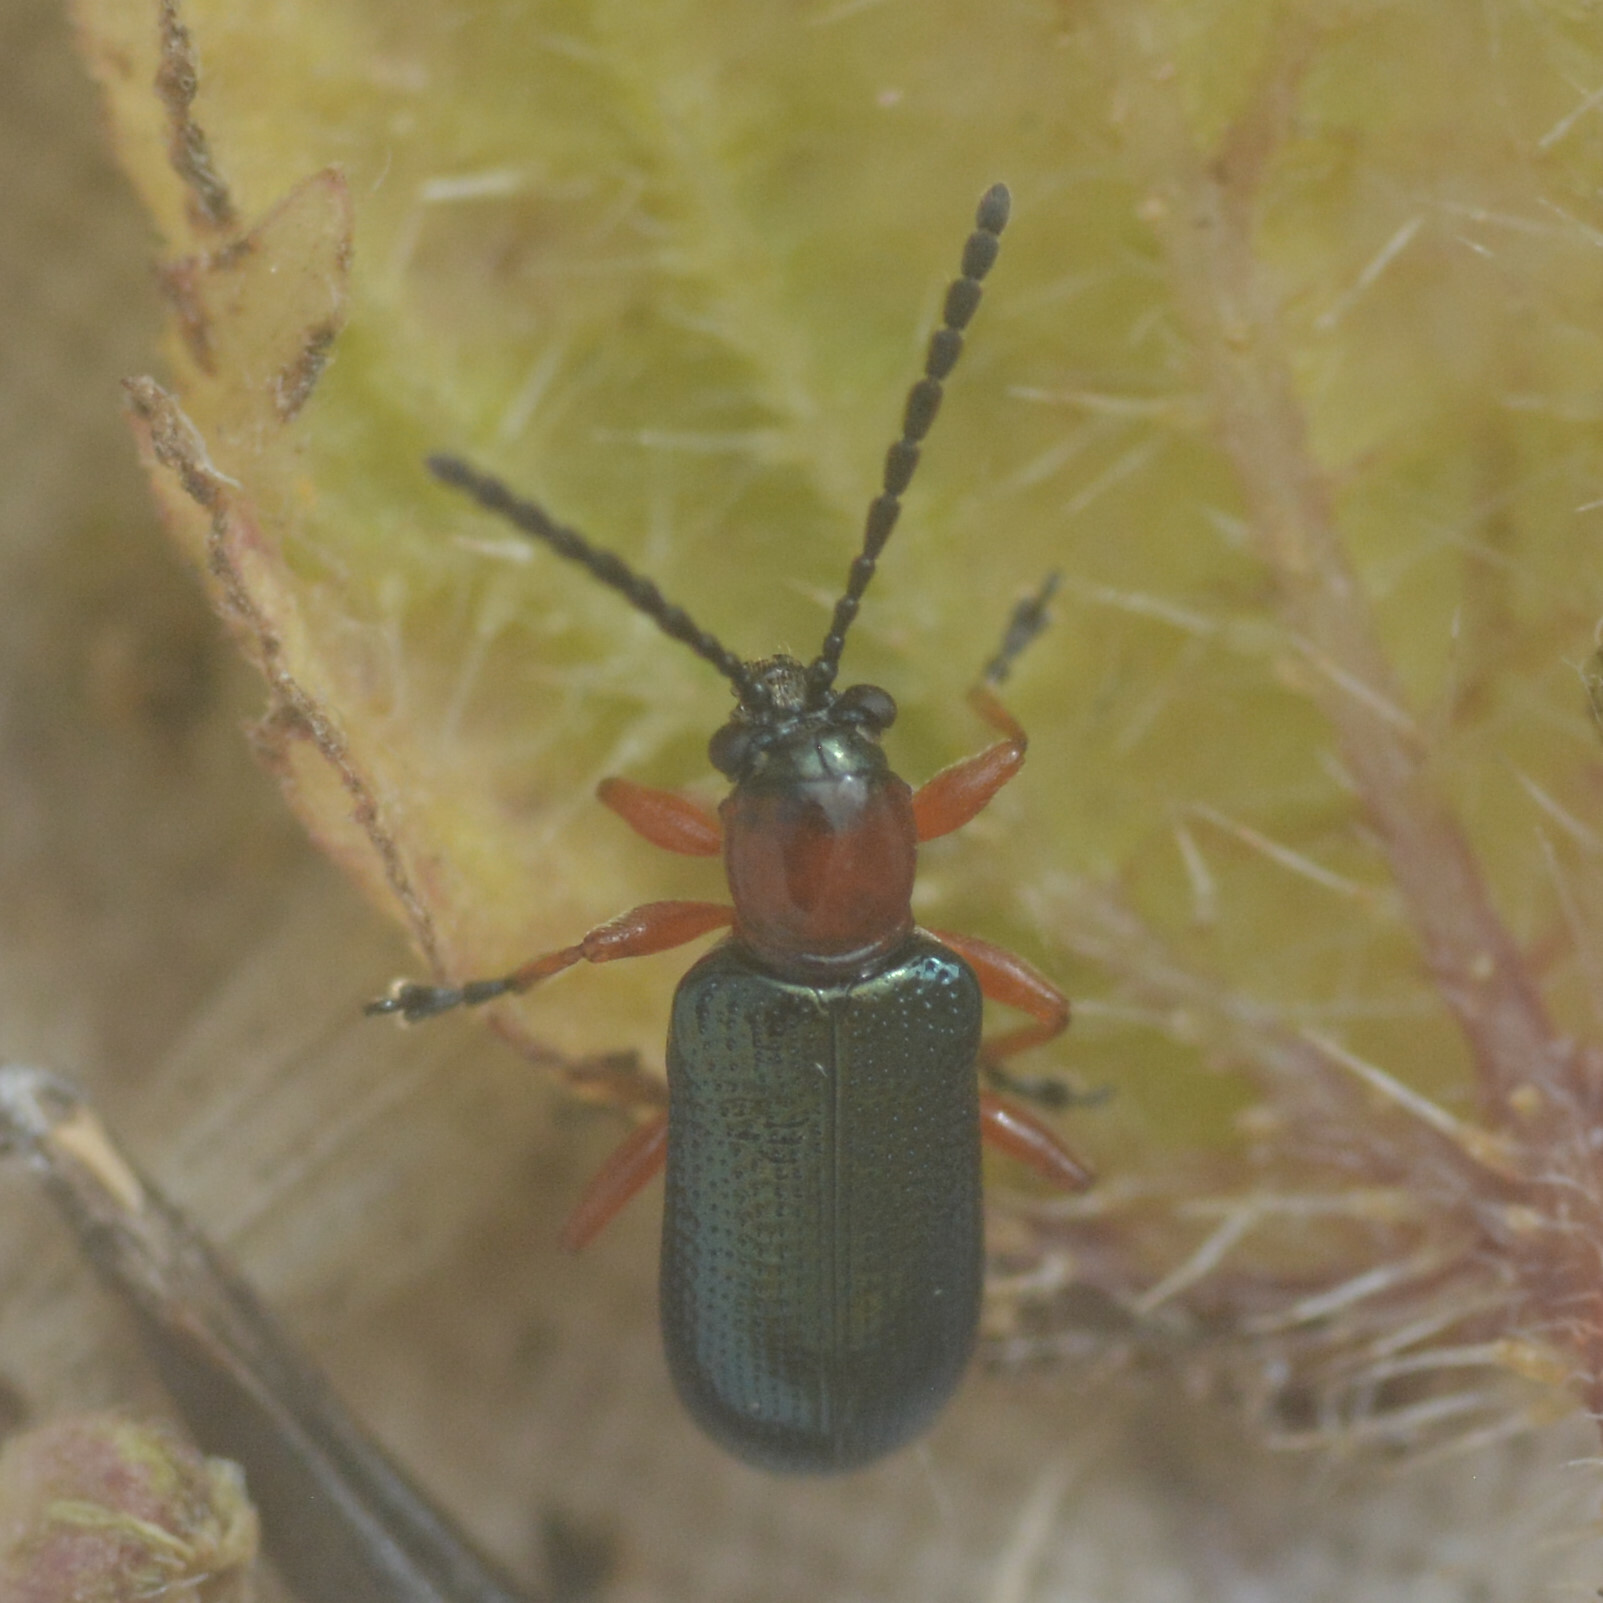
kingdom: Animalia
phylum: Arthropoda
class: Insecta
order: Coleoptera
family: Chrysomelidae
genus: Oulema
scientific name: Oulema
